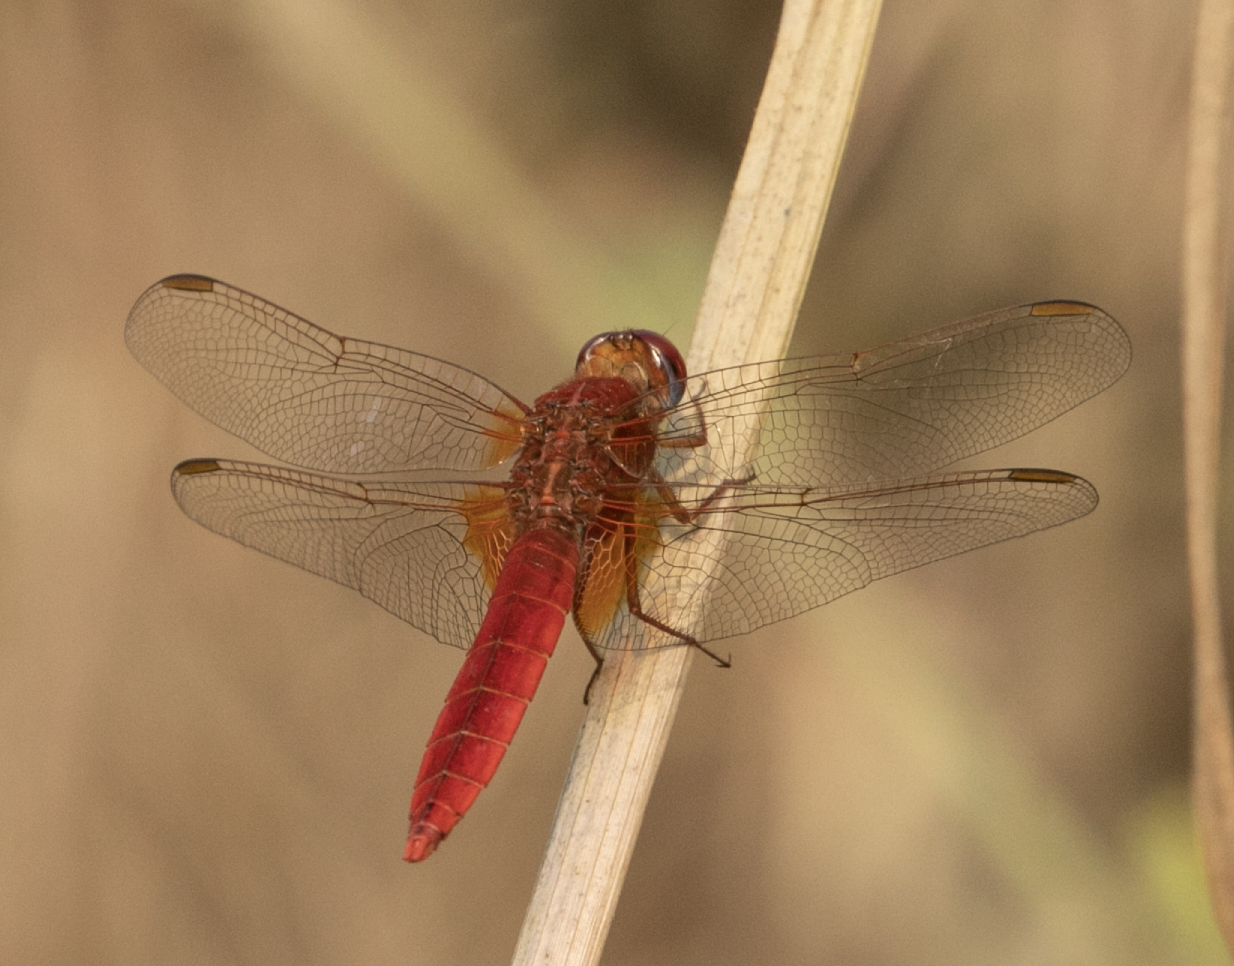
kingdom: Animalia
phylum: Arthropoda
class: Insecta
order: Odonata
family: Libellulidae
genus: Crocothemis
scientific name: Crocothemis erythraea
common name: Scarlet dragonfly
